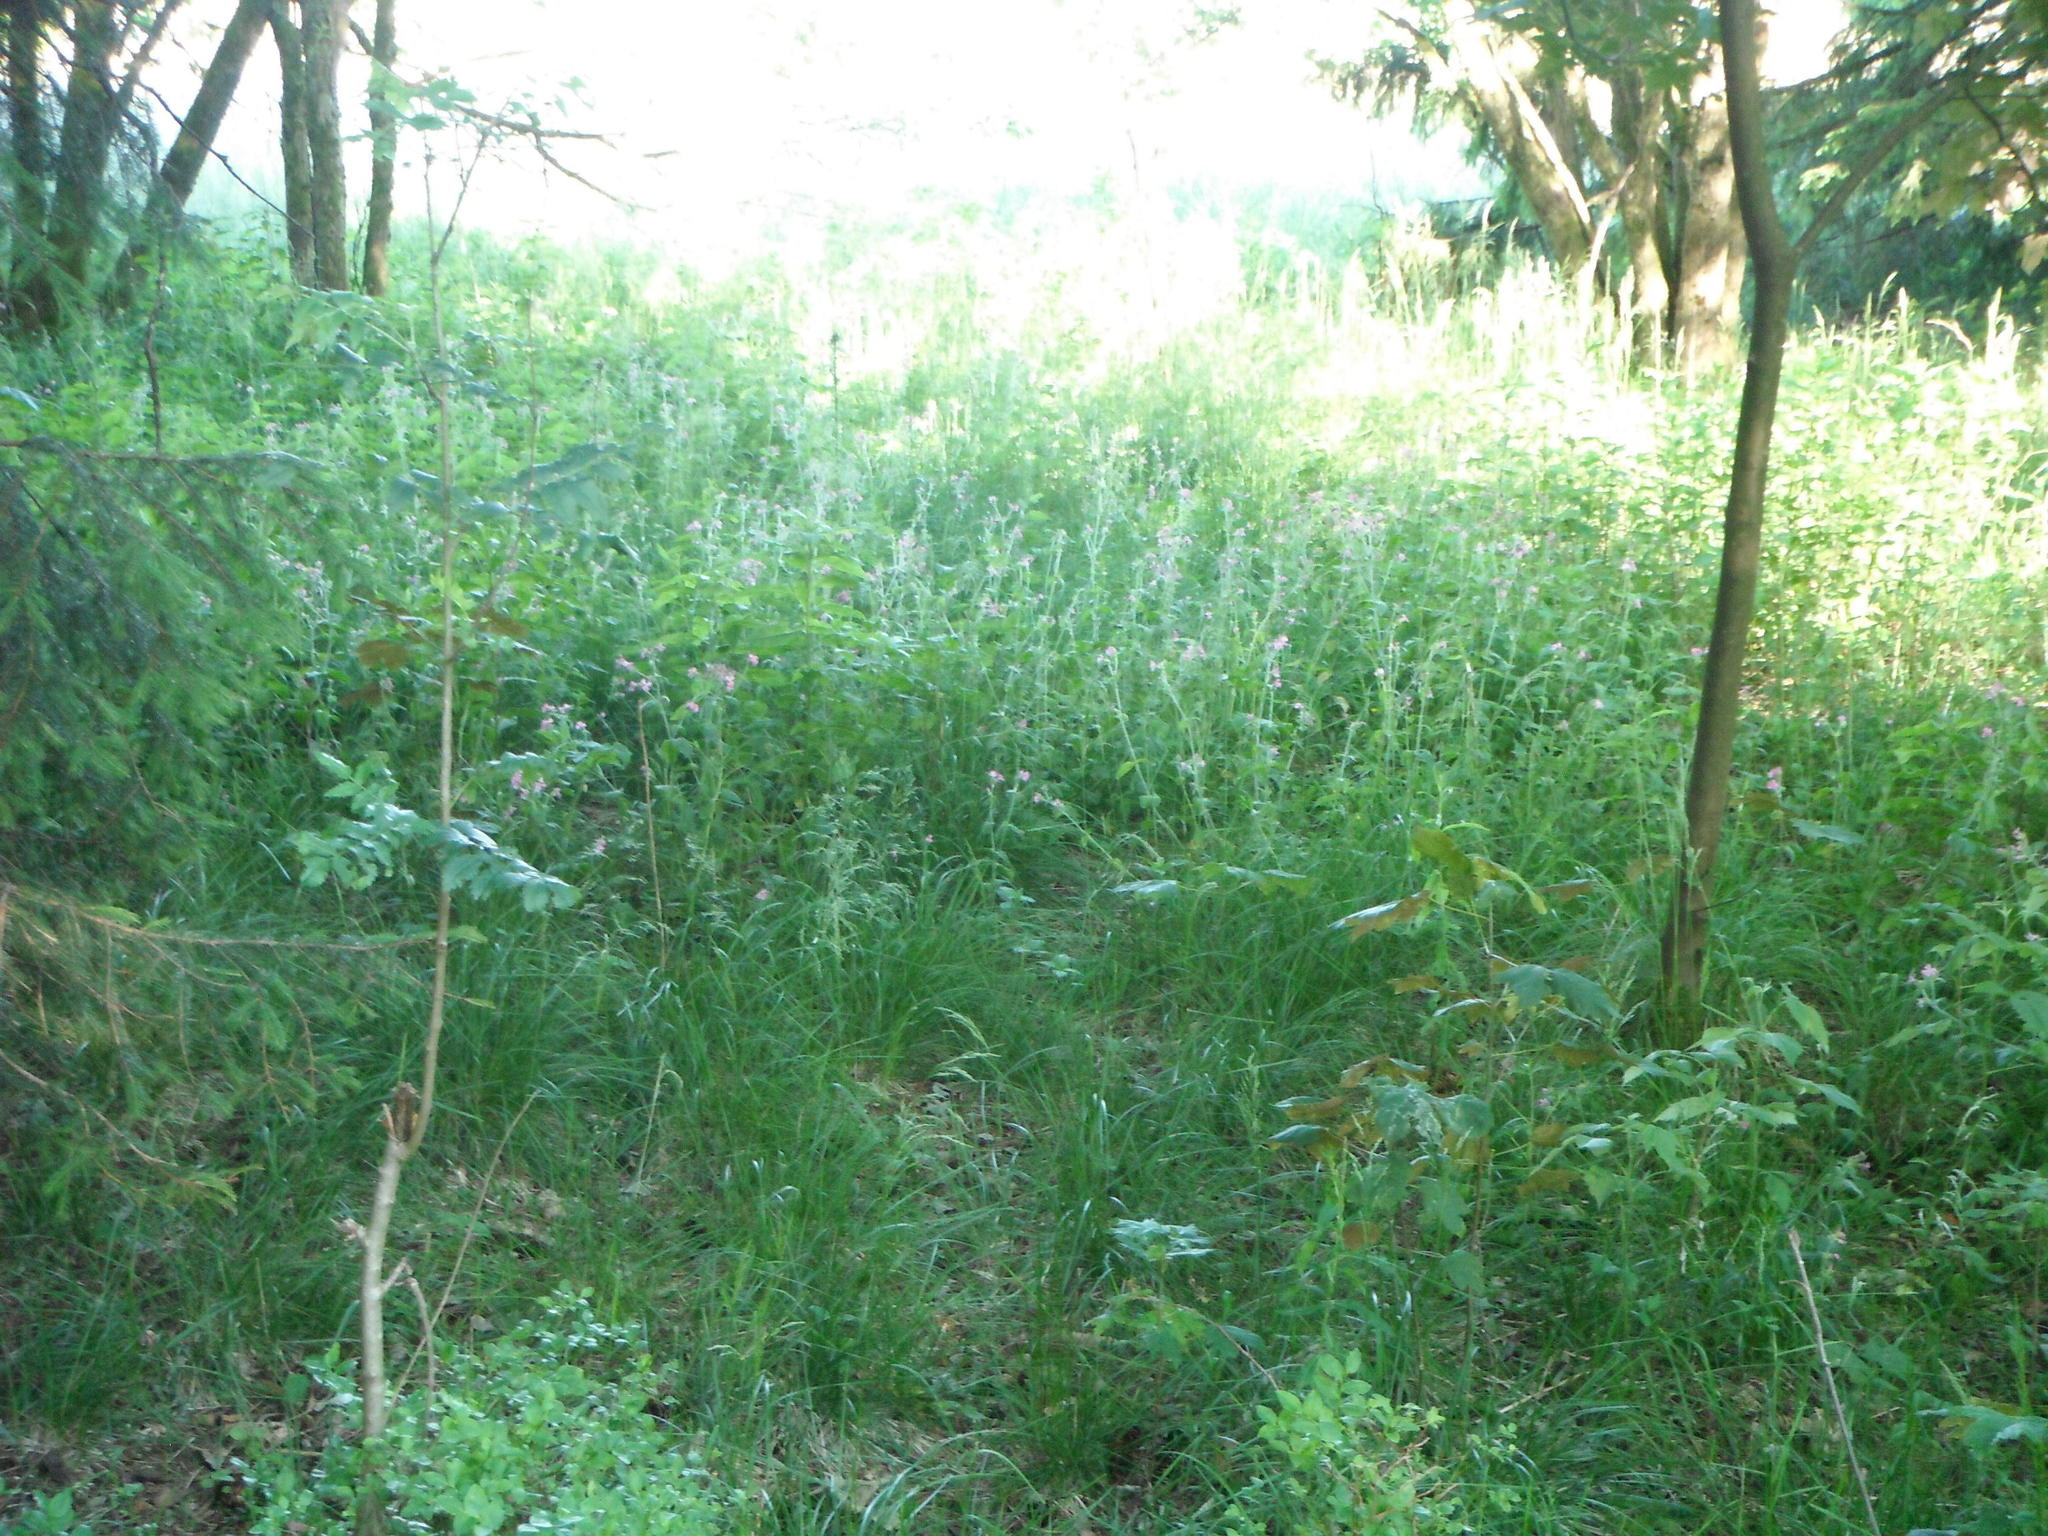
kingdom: Plantae
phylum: Tracheophyta
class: Magnoliopsida
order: Caryophyllales
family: Caryophyllaceae
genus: Silene
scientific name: Silene dioica
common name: Red campion
